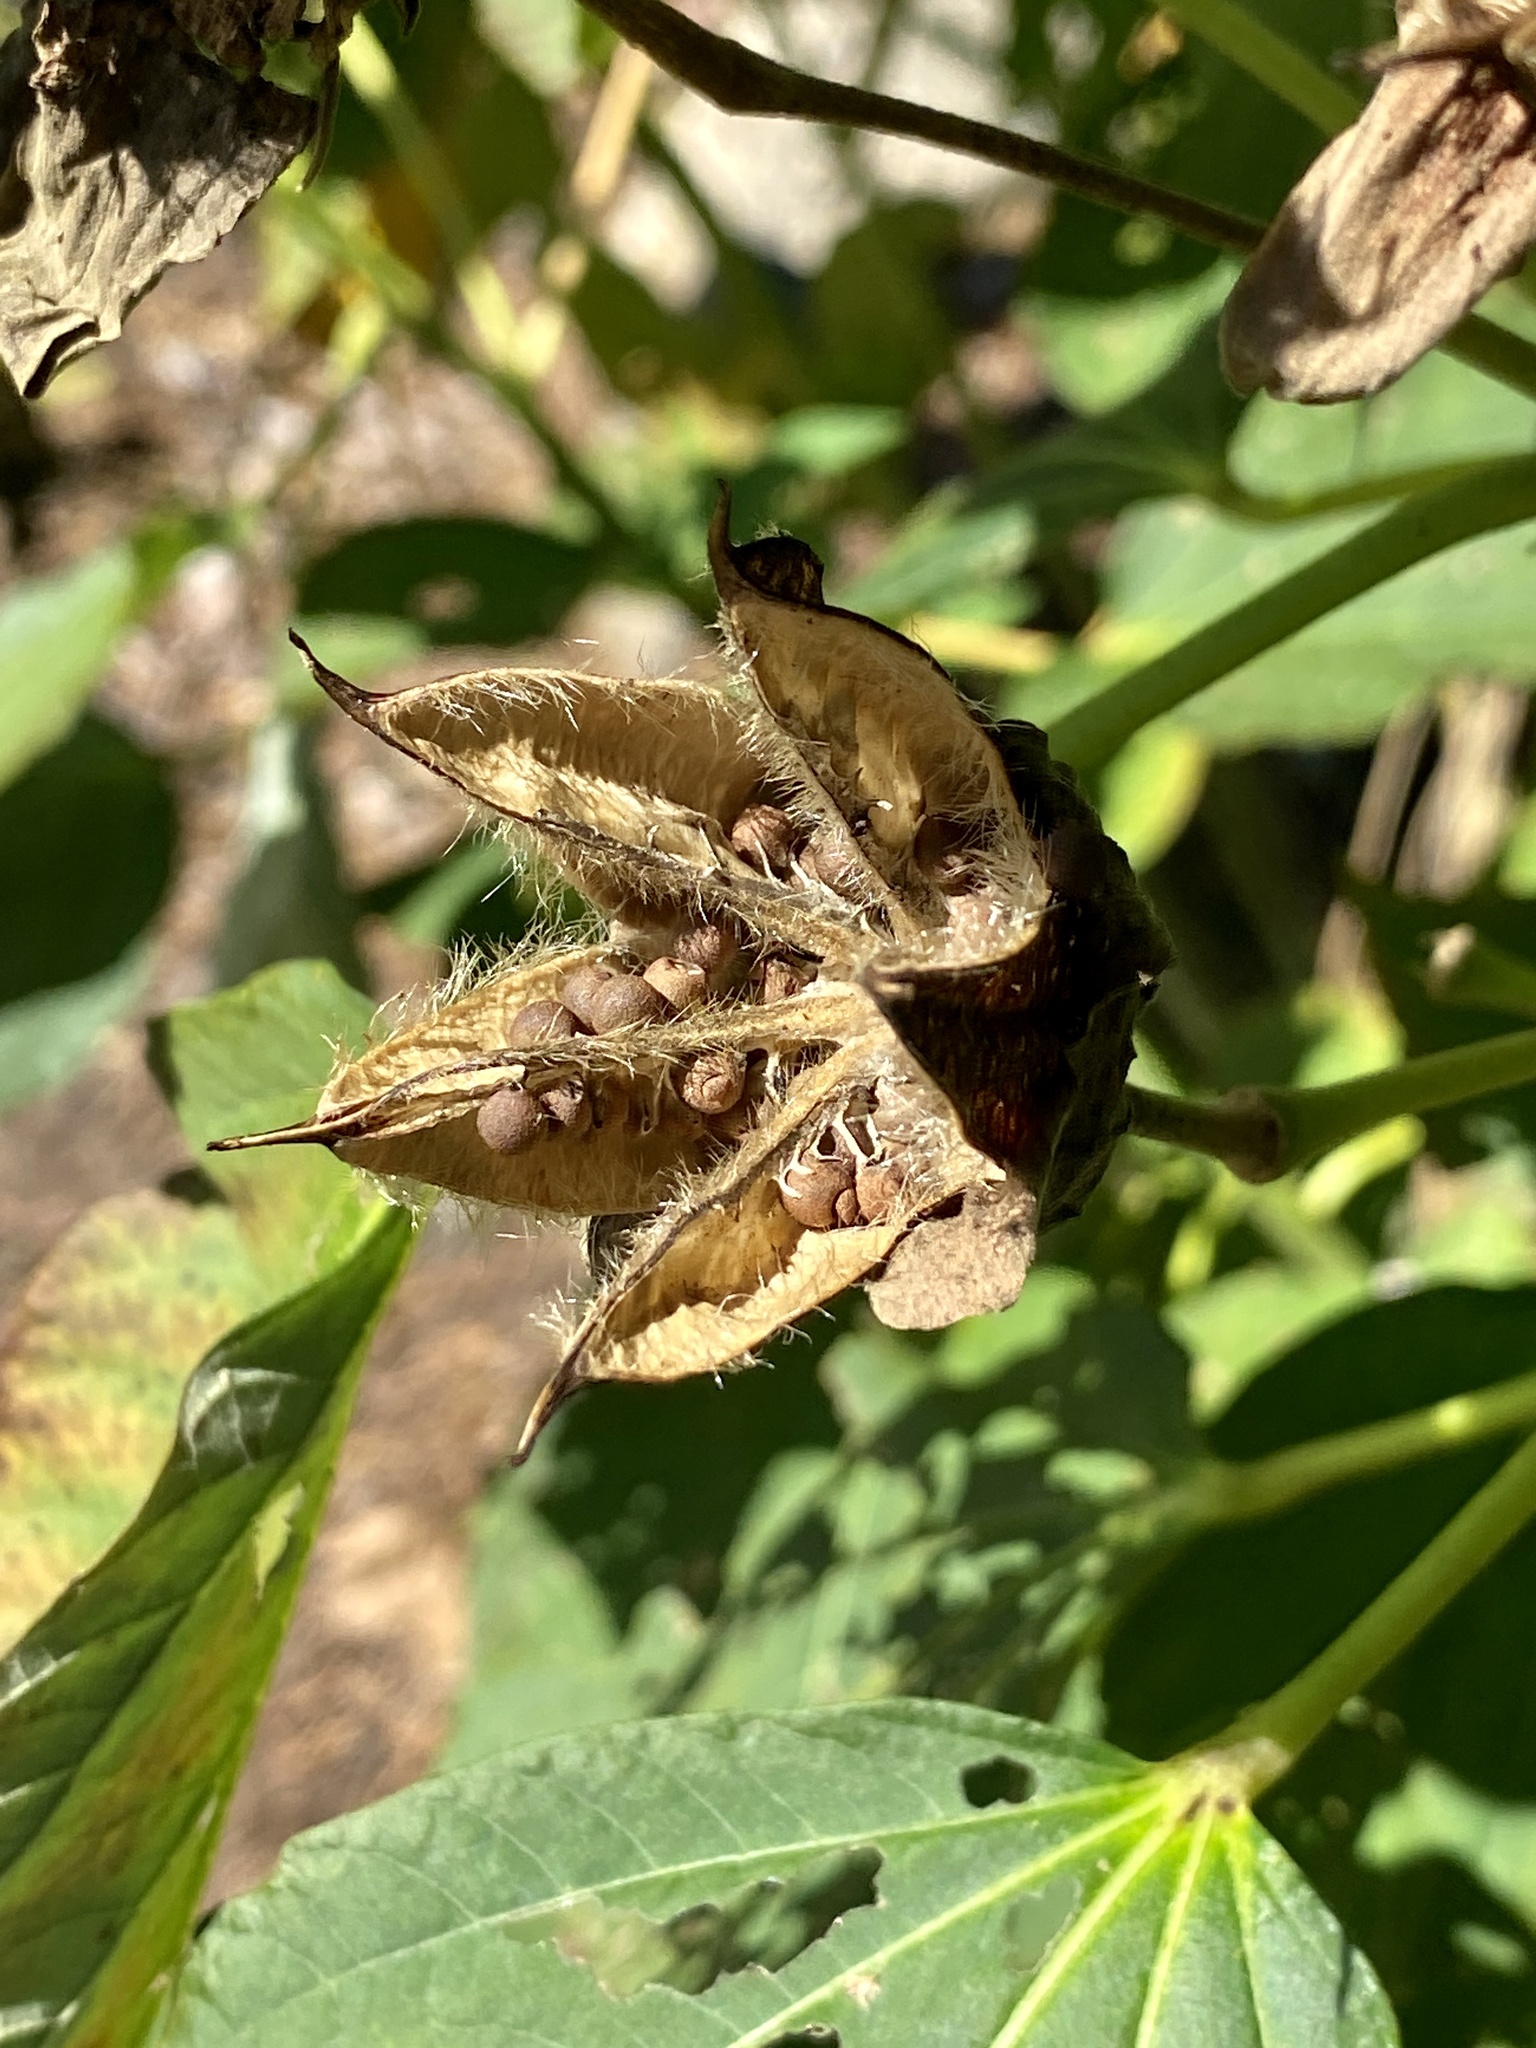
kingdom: Plantae
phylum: Tracheophyta
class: Magnoliopsida
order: Malvales
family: Malvaceae
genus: Hibiscus
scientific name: Hibiscus moscheutos
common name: Common rose-mallow
